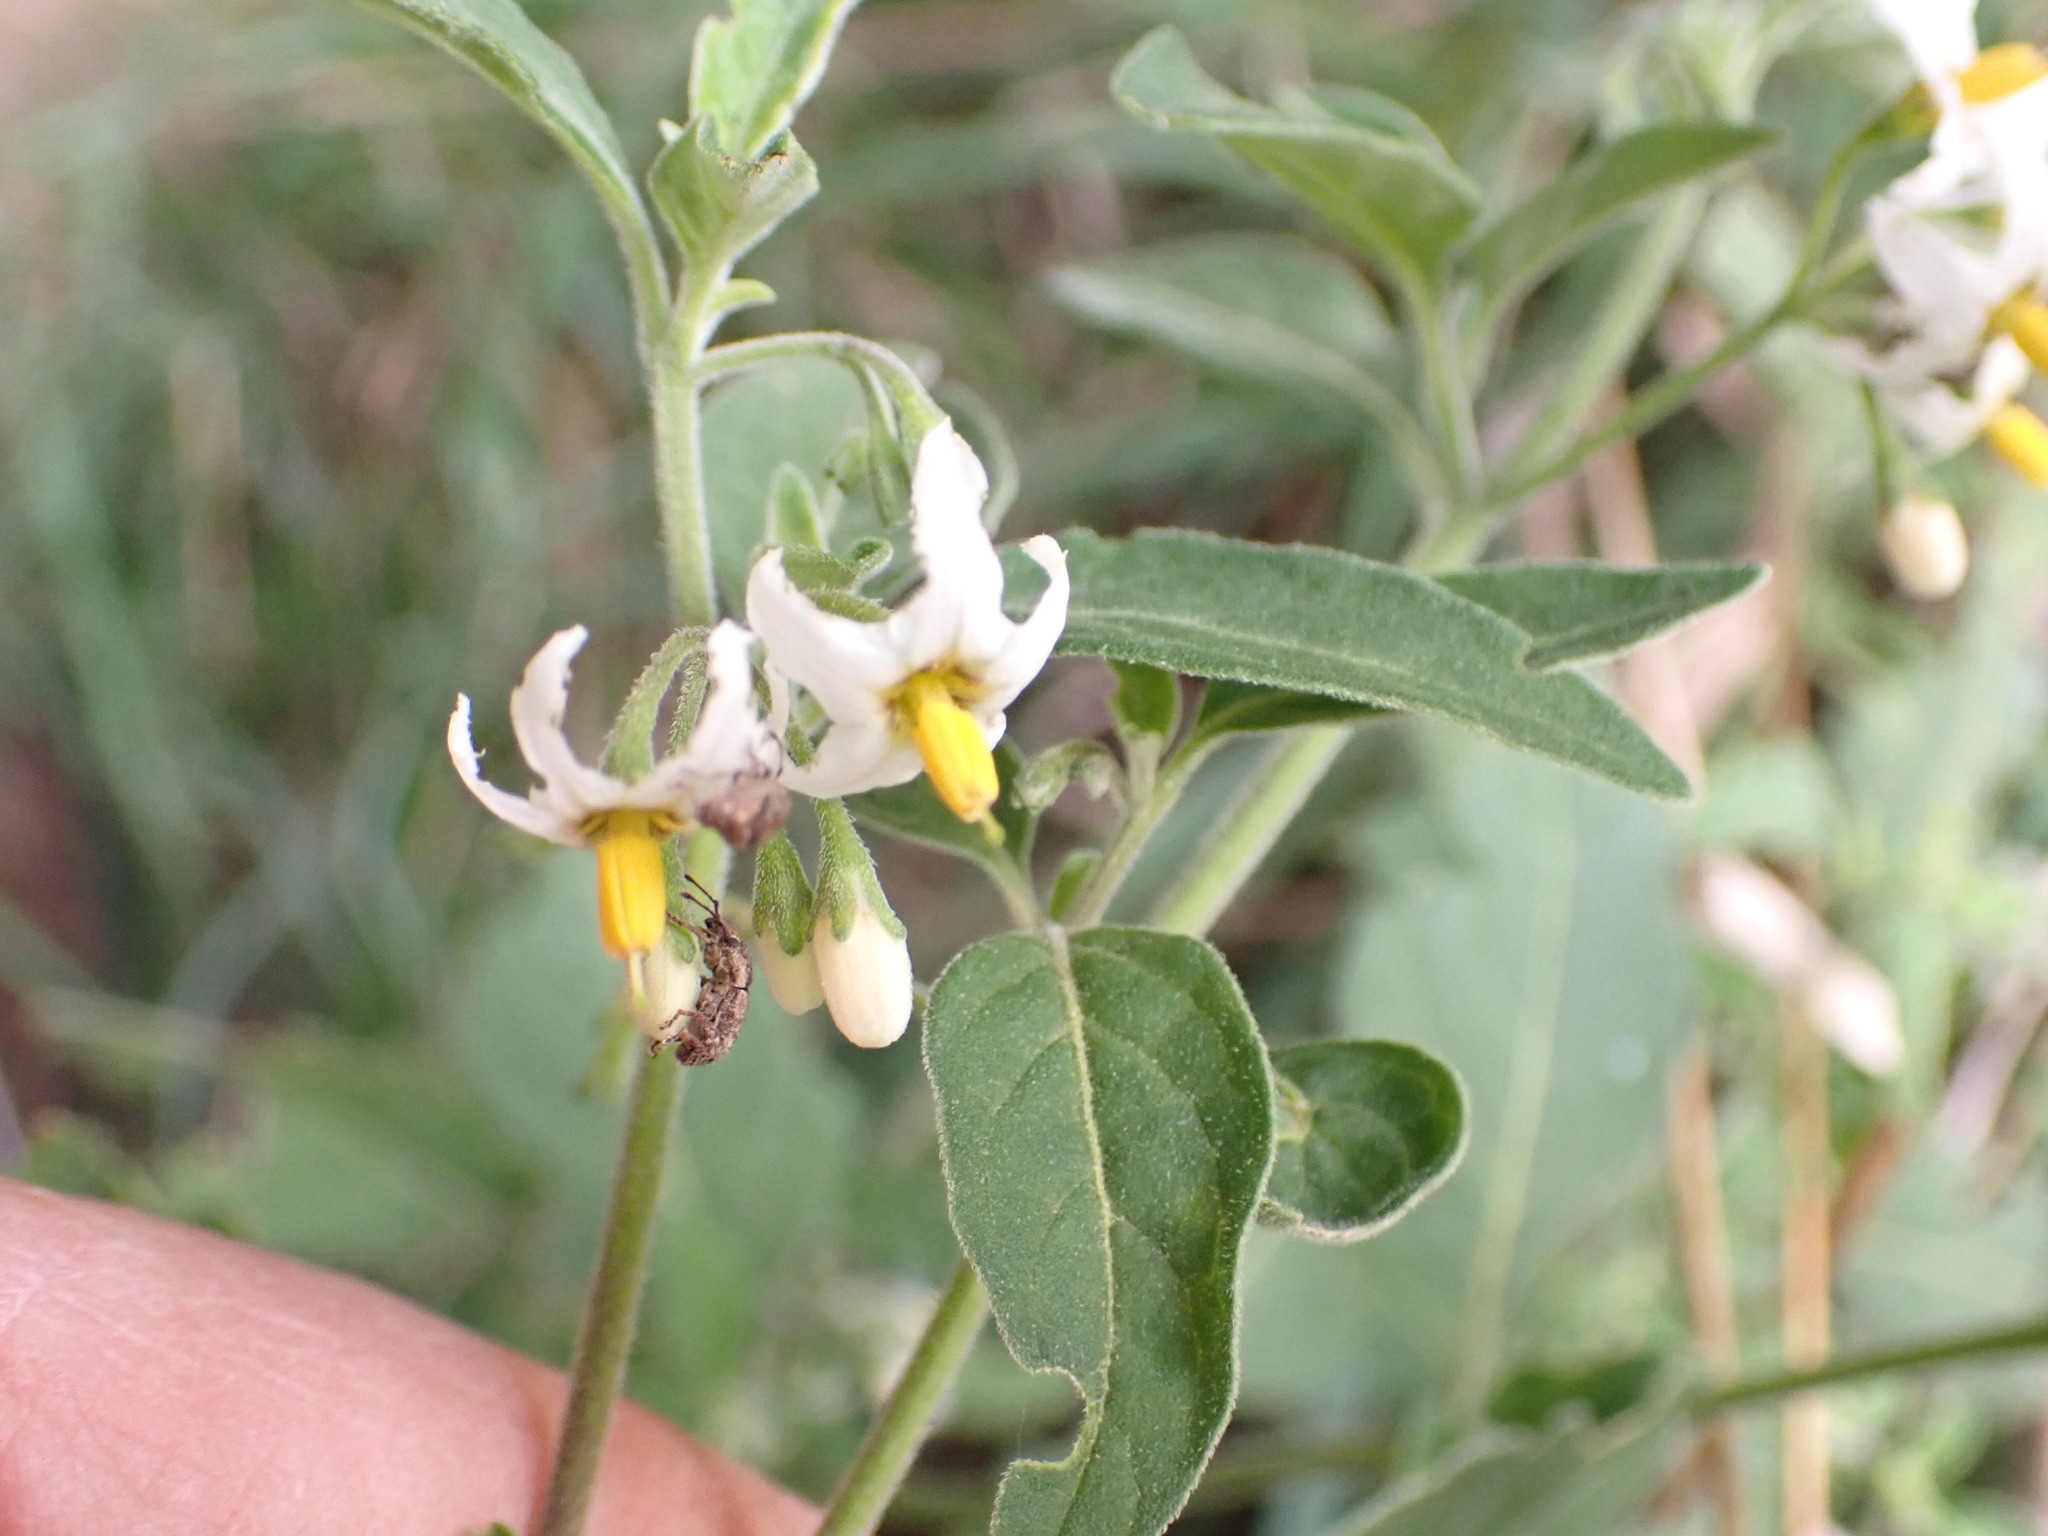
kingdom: Plantae
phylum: Tracheophyta
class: Magnoliopsida
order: Solanales
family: Solanaceae
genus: Solanum
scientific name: Solanum chenopodioides
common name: Tall nightshade
